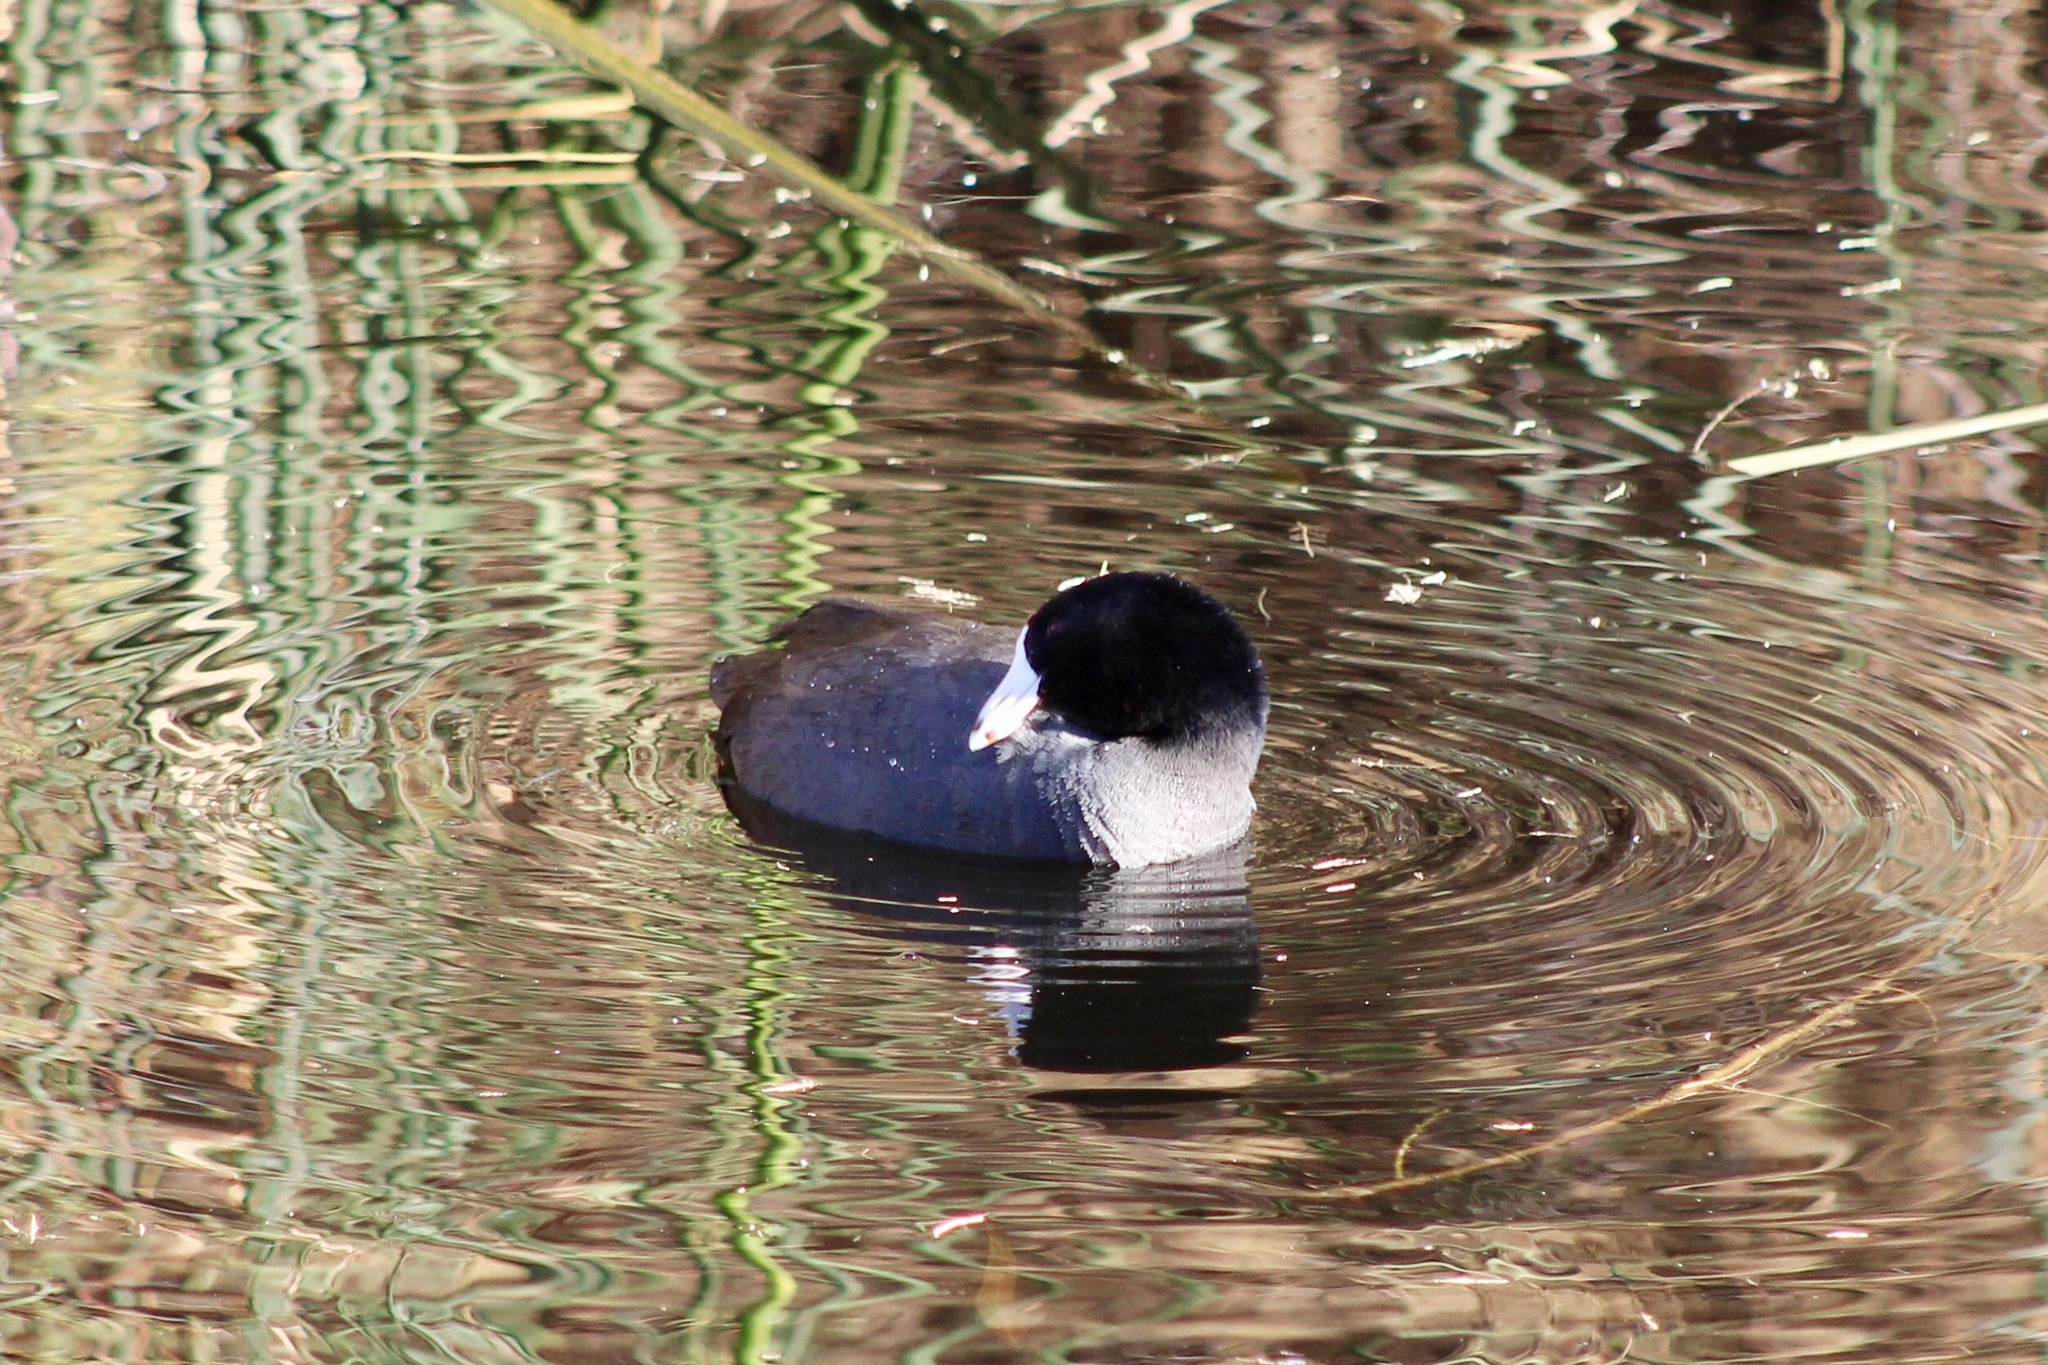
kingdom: Animalia
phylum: Chordata
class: Aves
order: Gruiformes
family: Rallidae
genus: Fulica
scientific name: Fulica americana
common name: American coot
